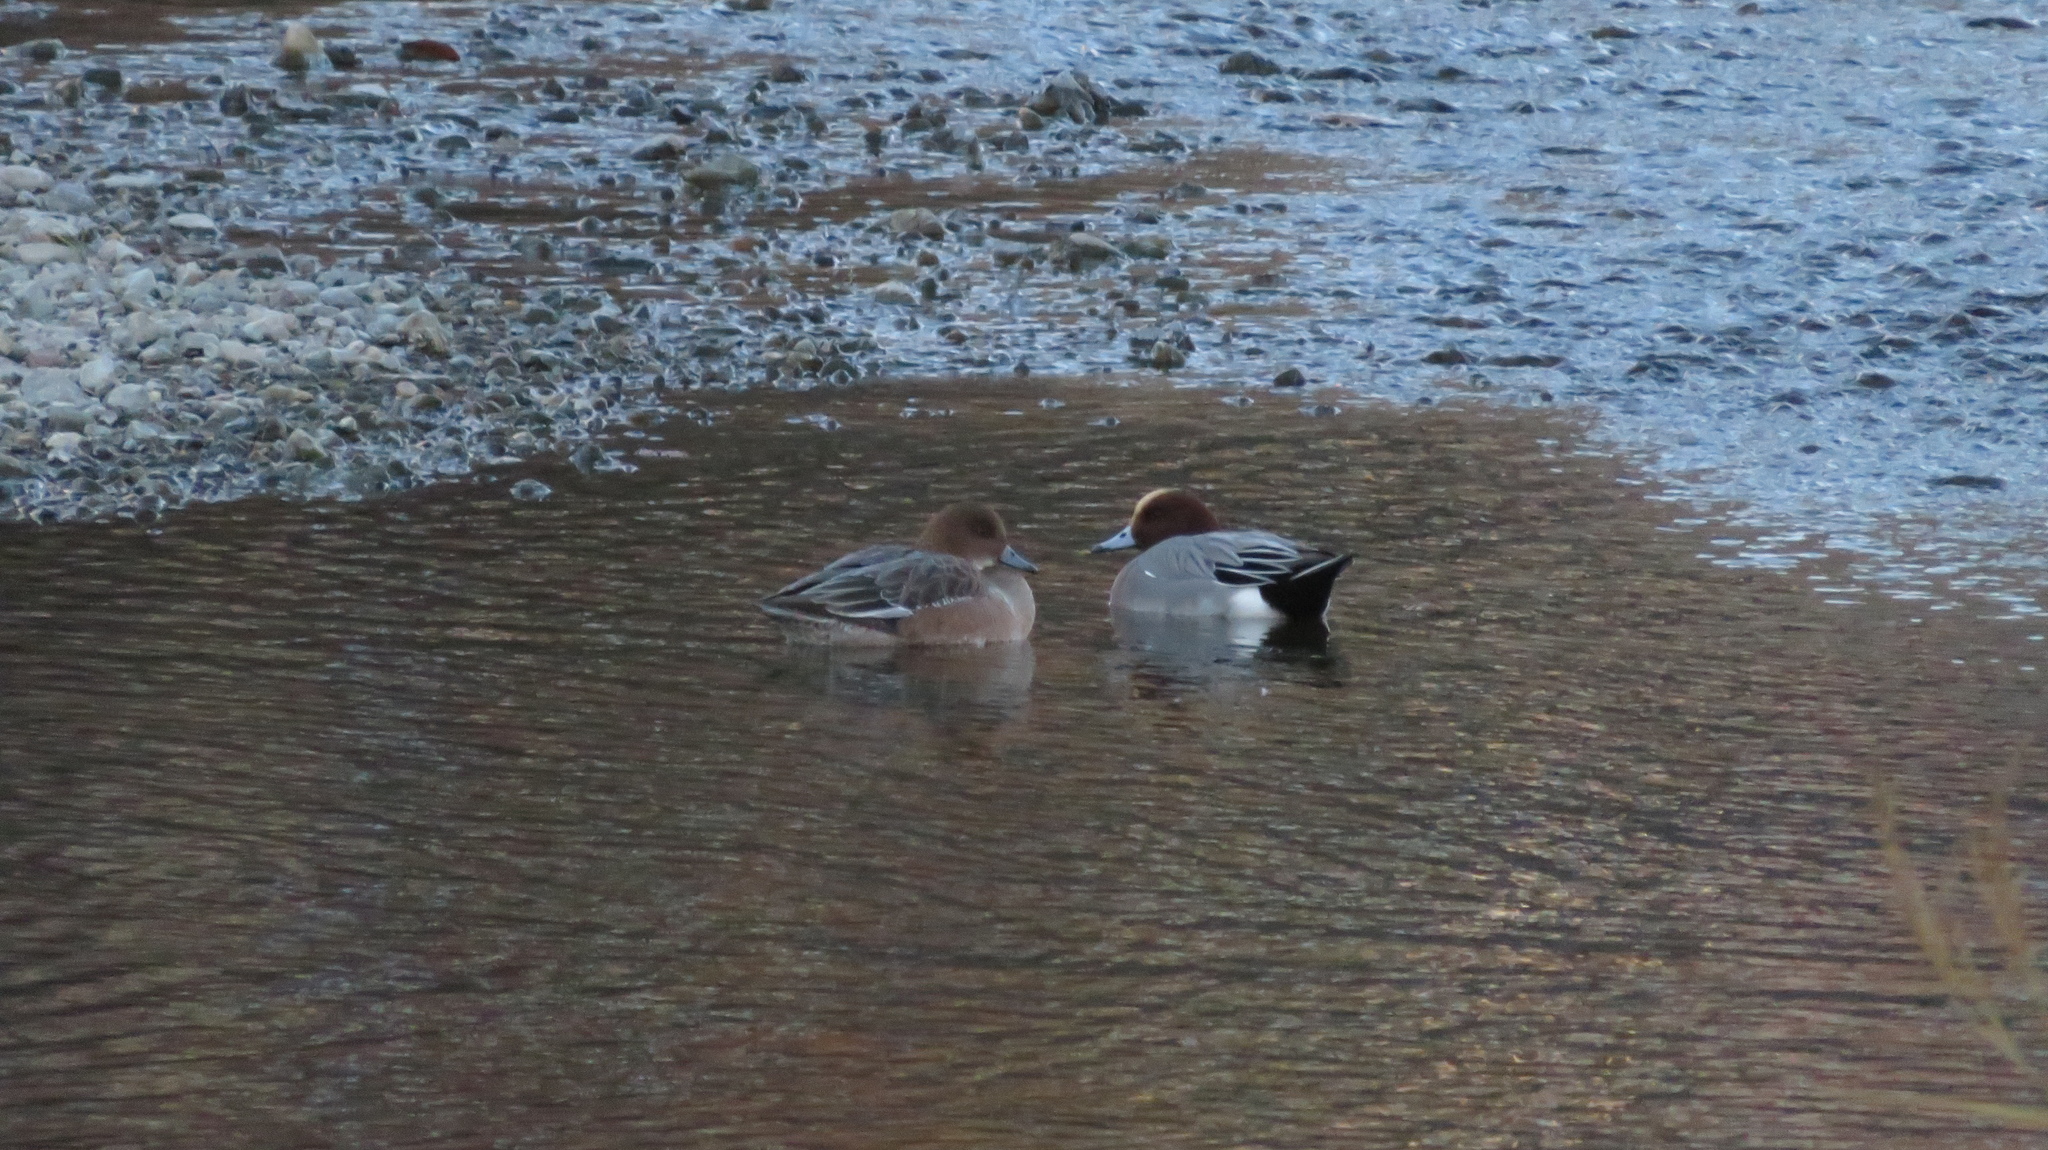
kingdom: Animalia
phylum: Chordata
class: Aves
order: Anseriformes
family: Anatidae
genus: Mareca
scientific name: Mareca penelope
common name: Eurasian wigeon
